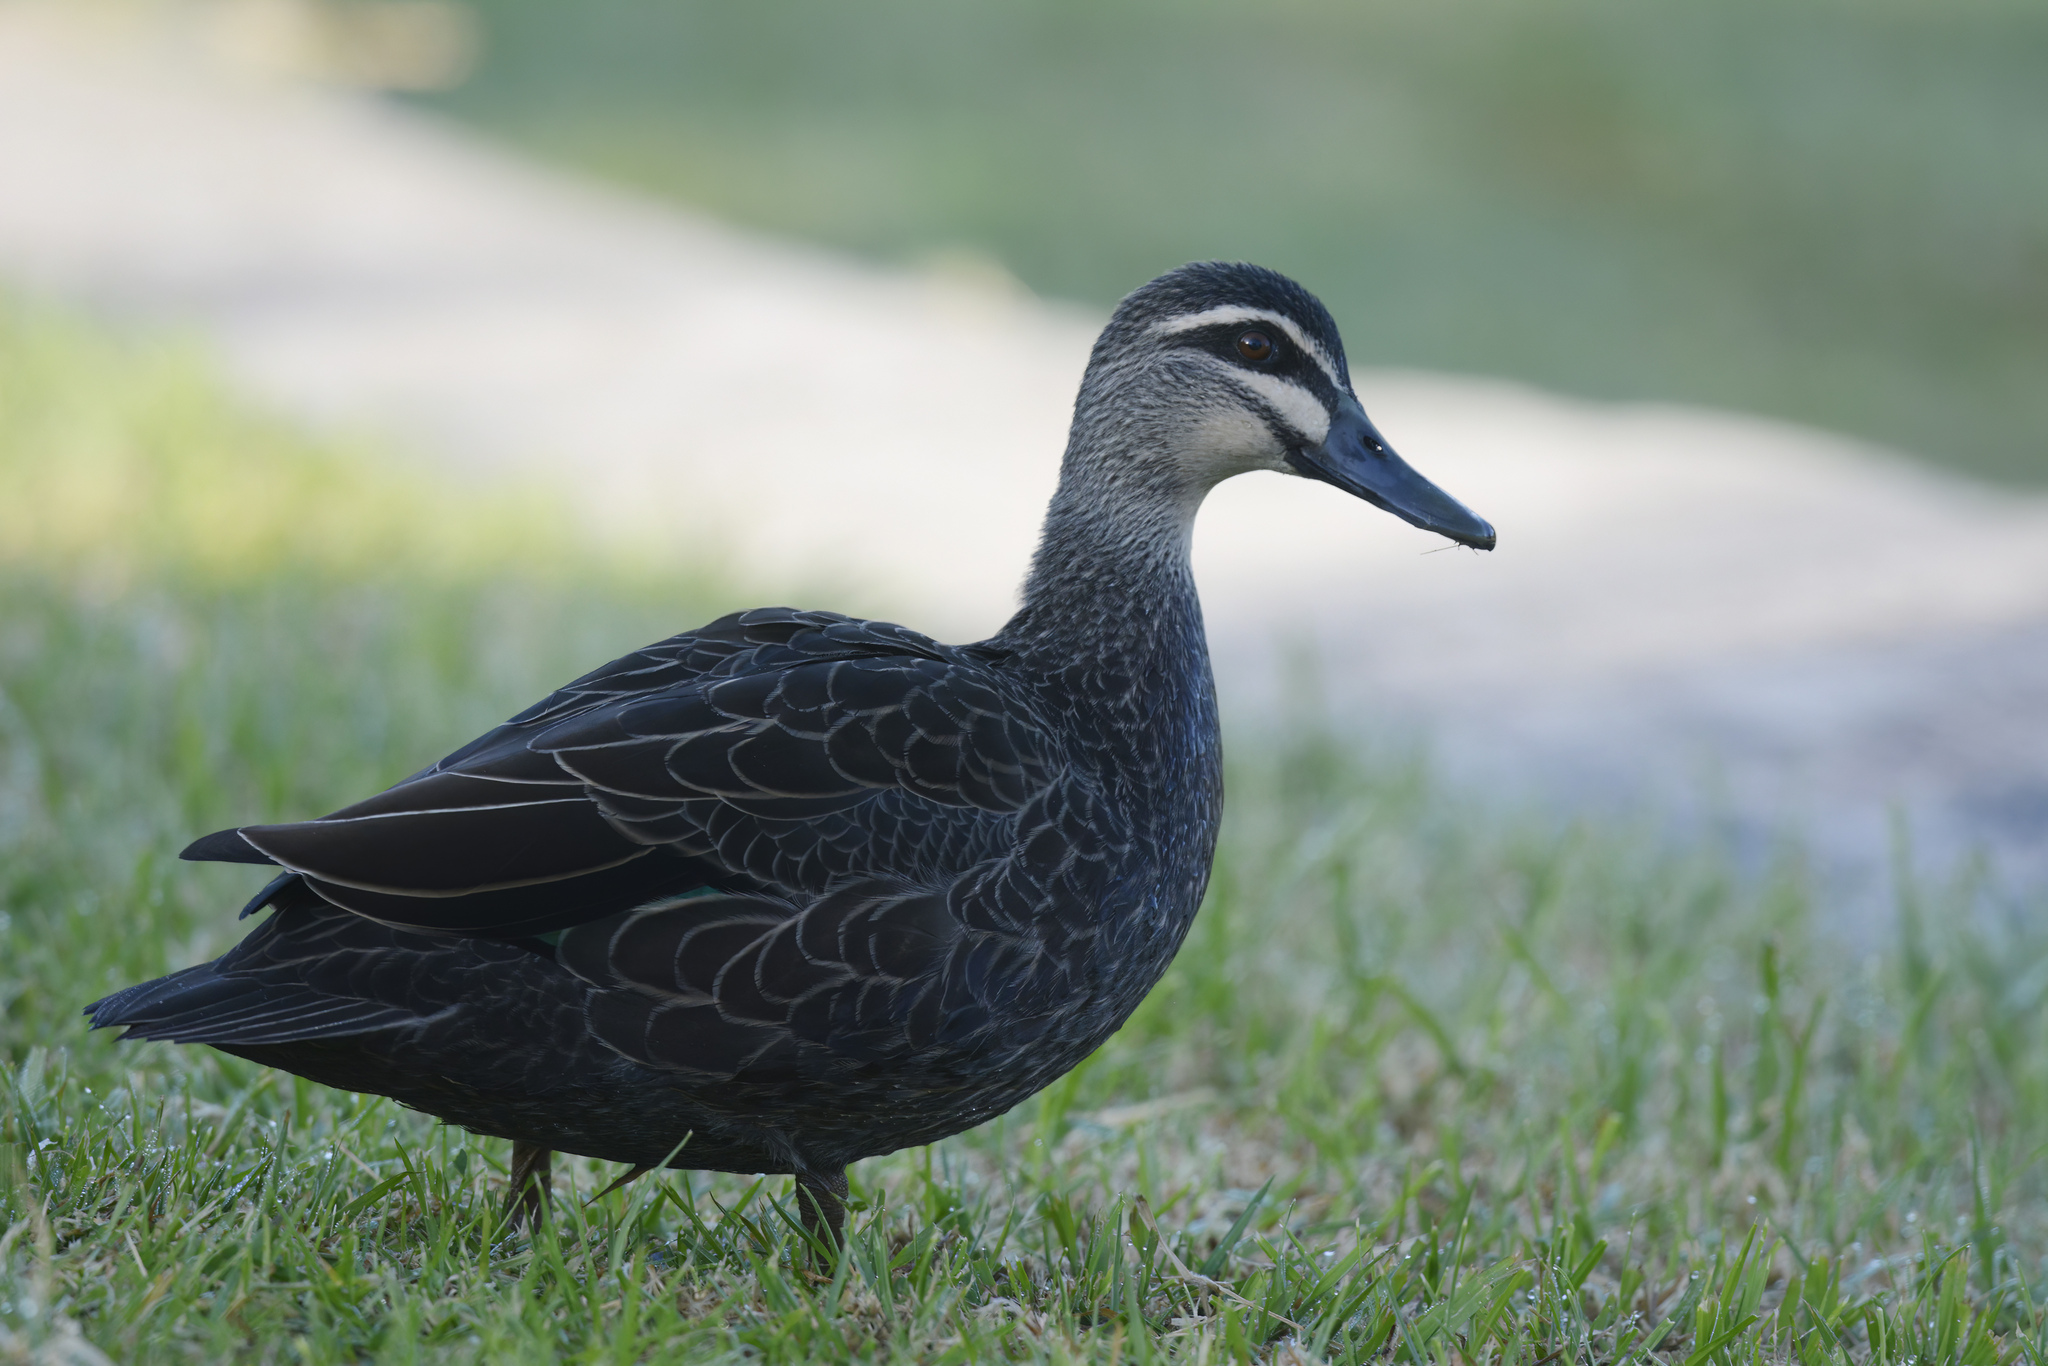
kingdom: Animalia
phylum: Chordata
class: Aves
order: Anseriformes
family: Anatidae
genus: Anas
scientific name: Anas superciliosa
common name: Pacific black duck
